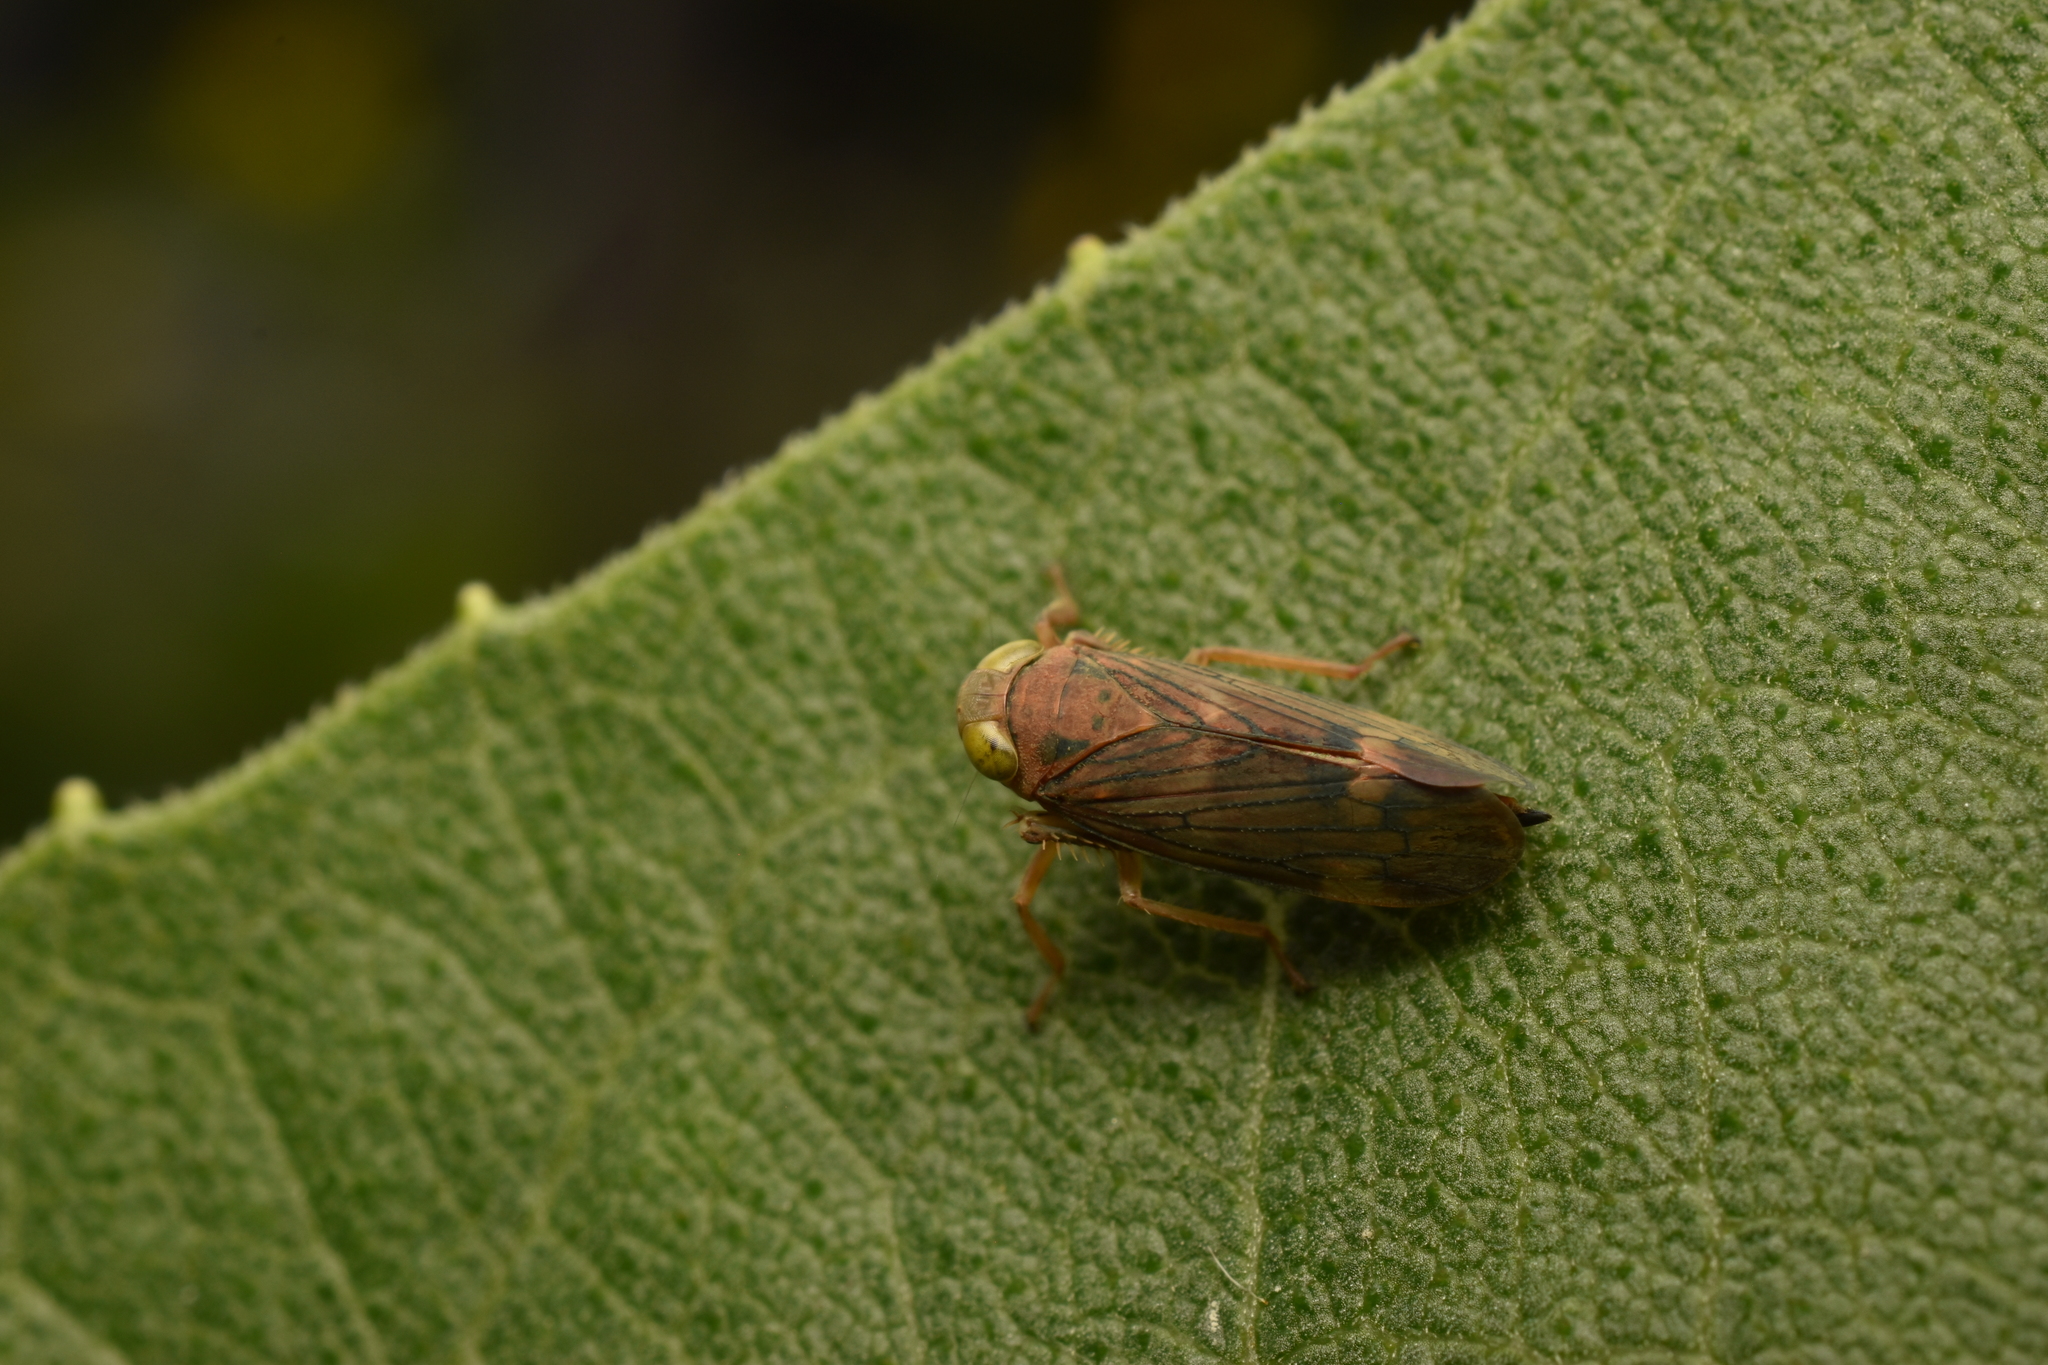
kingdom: Animalia
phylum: Arthropoda
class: Insecta
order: Hemiptera
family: Cicadellidae
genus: Jikradia
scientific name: Jikradia olitoria
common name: Coppery leafhopper
